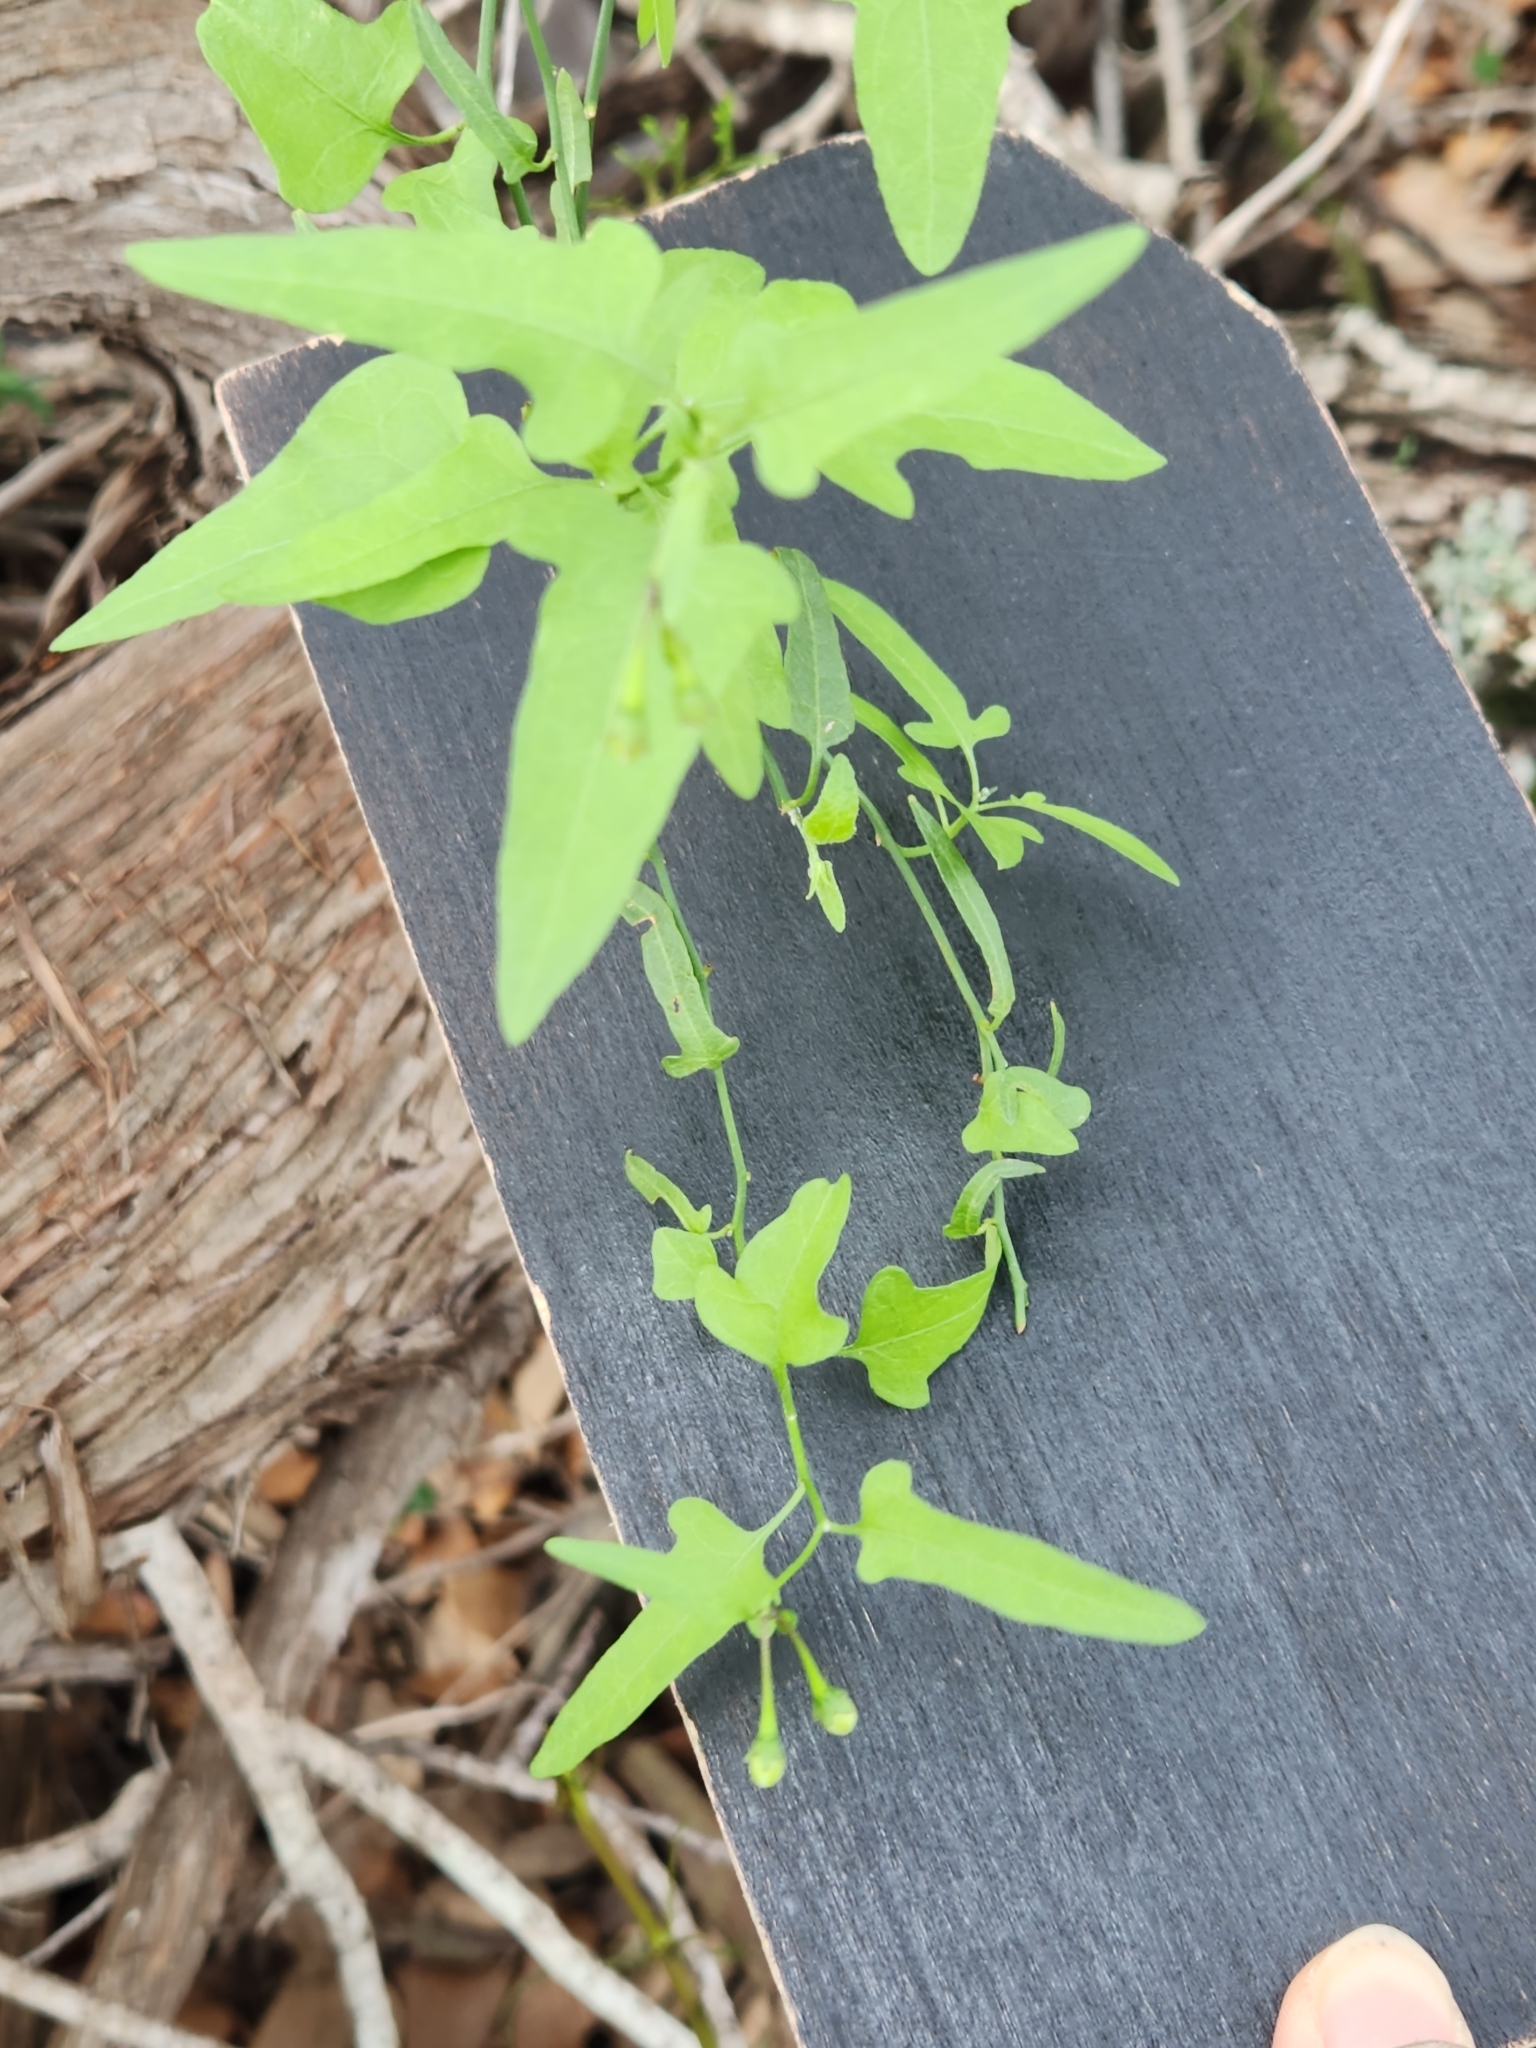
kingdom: Plantae
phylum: Tracheophyta
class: Magnoliopsida
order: Solanales
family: Solanaceae
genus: Solanum
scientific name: Solanum triquetrum
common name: Texas nightshade
